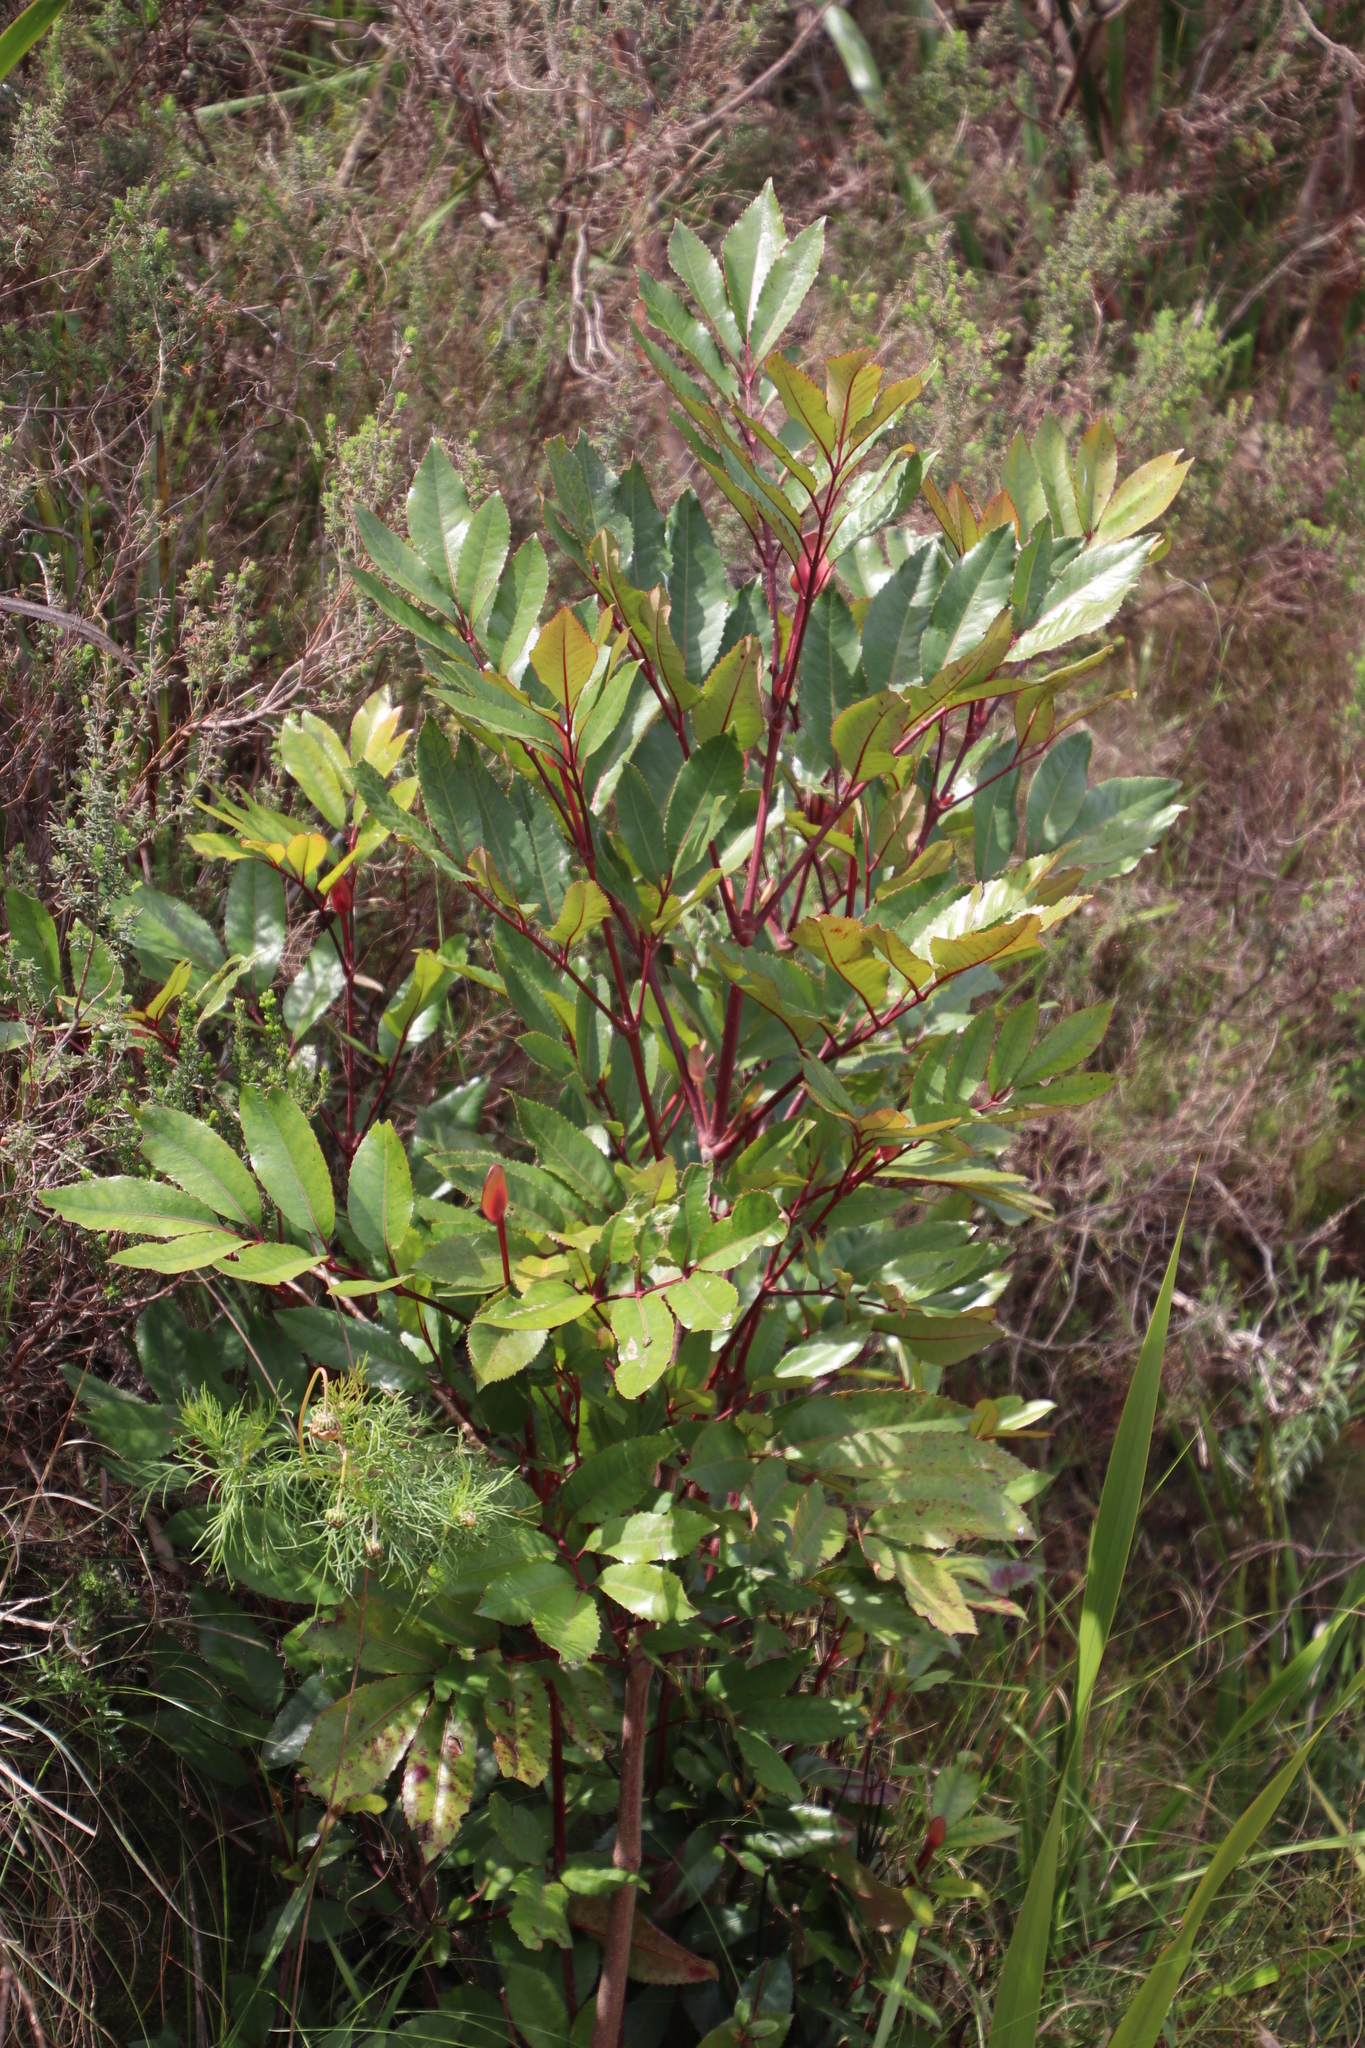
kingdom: Plantae
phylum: Tracheophyta
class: Magnoliopsida
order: Oxalidales
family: Cunoniaceae
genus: Cunonia
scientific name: Cunonia capensis
